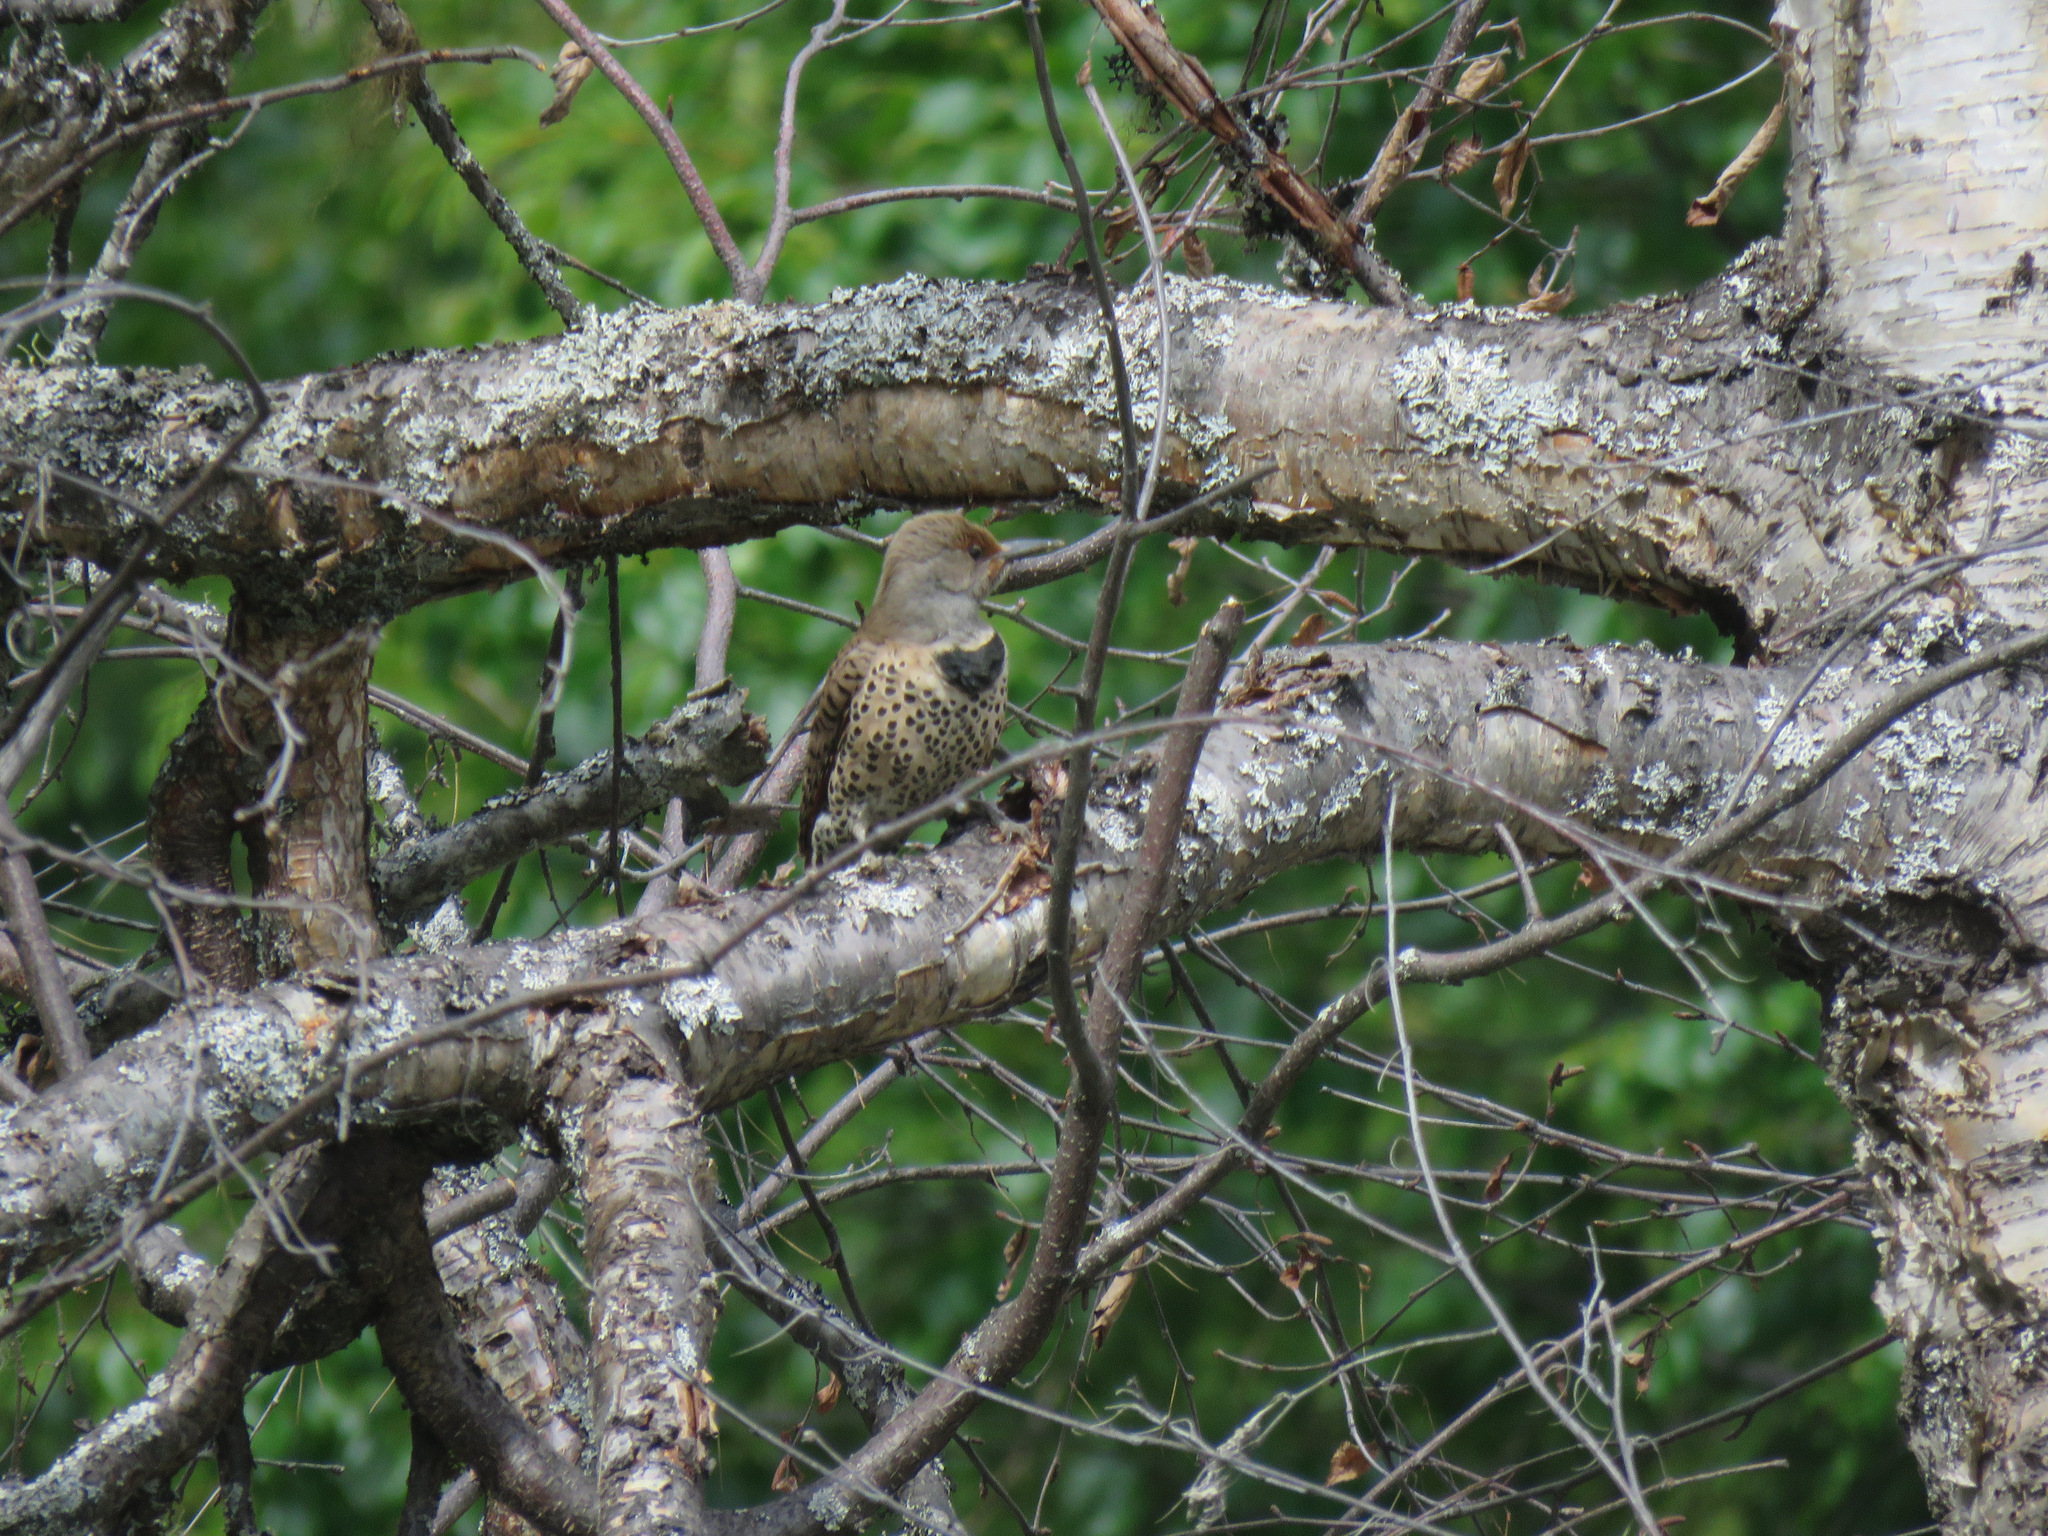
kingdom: Animalia
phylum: Chordata
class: Aves
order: Piciformes
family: Picidae
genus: Colaptes
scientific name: Colaptes auratus
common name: Northern flicker
